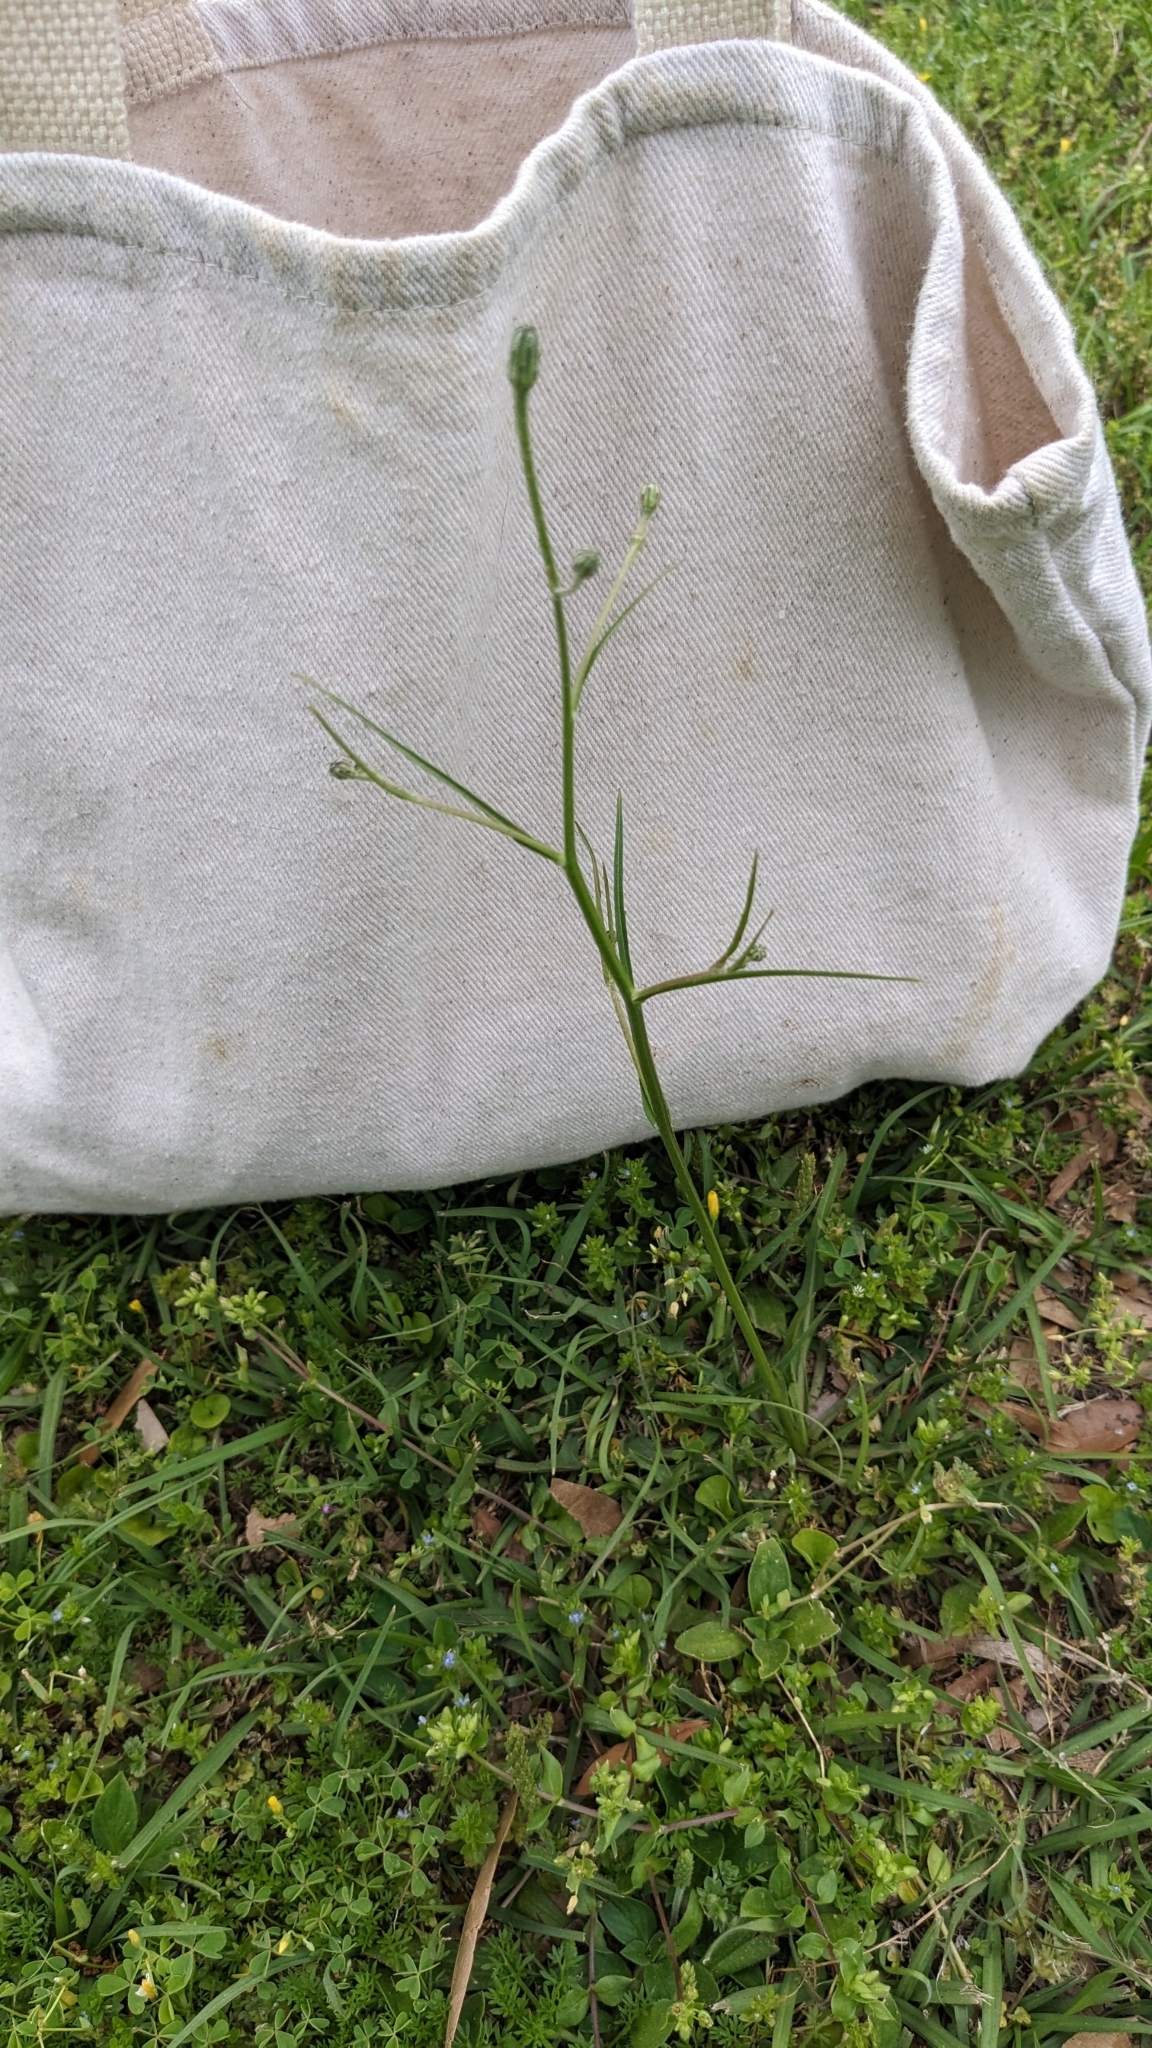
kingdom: Plantae
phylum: Tracheophyta
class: Magnoliopsida
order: Asterales
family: Asteraceae
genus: Hypochaeris
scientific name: Hypochaeris albiflora
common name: White flatweed
